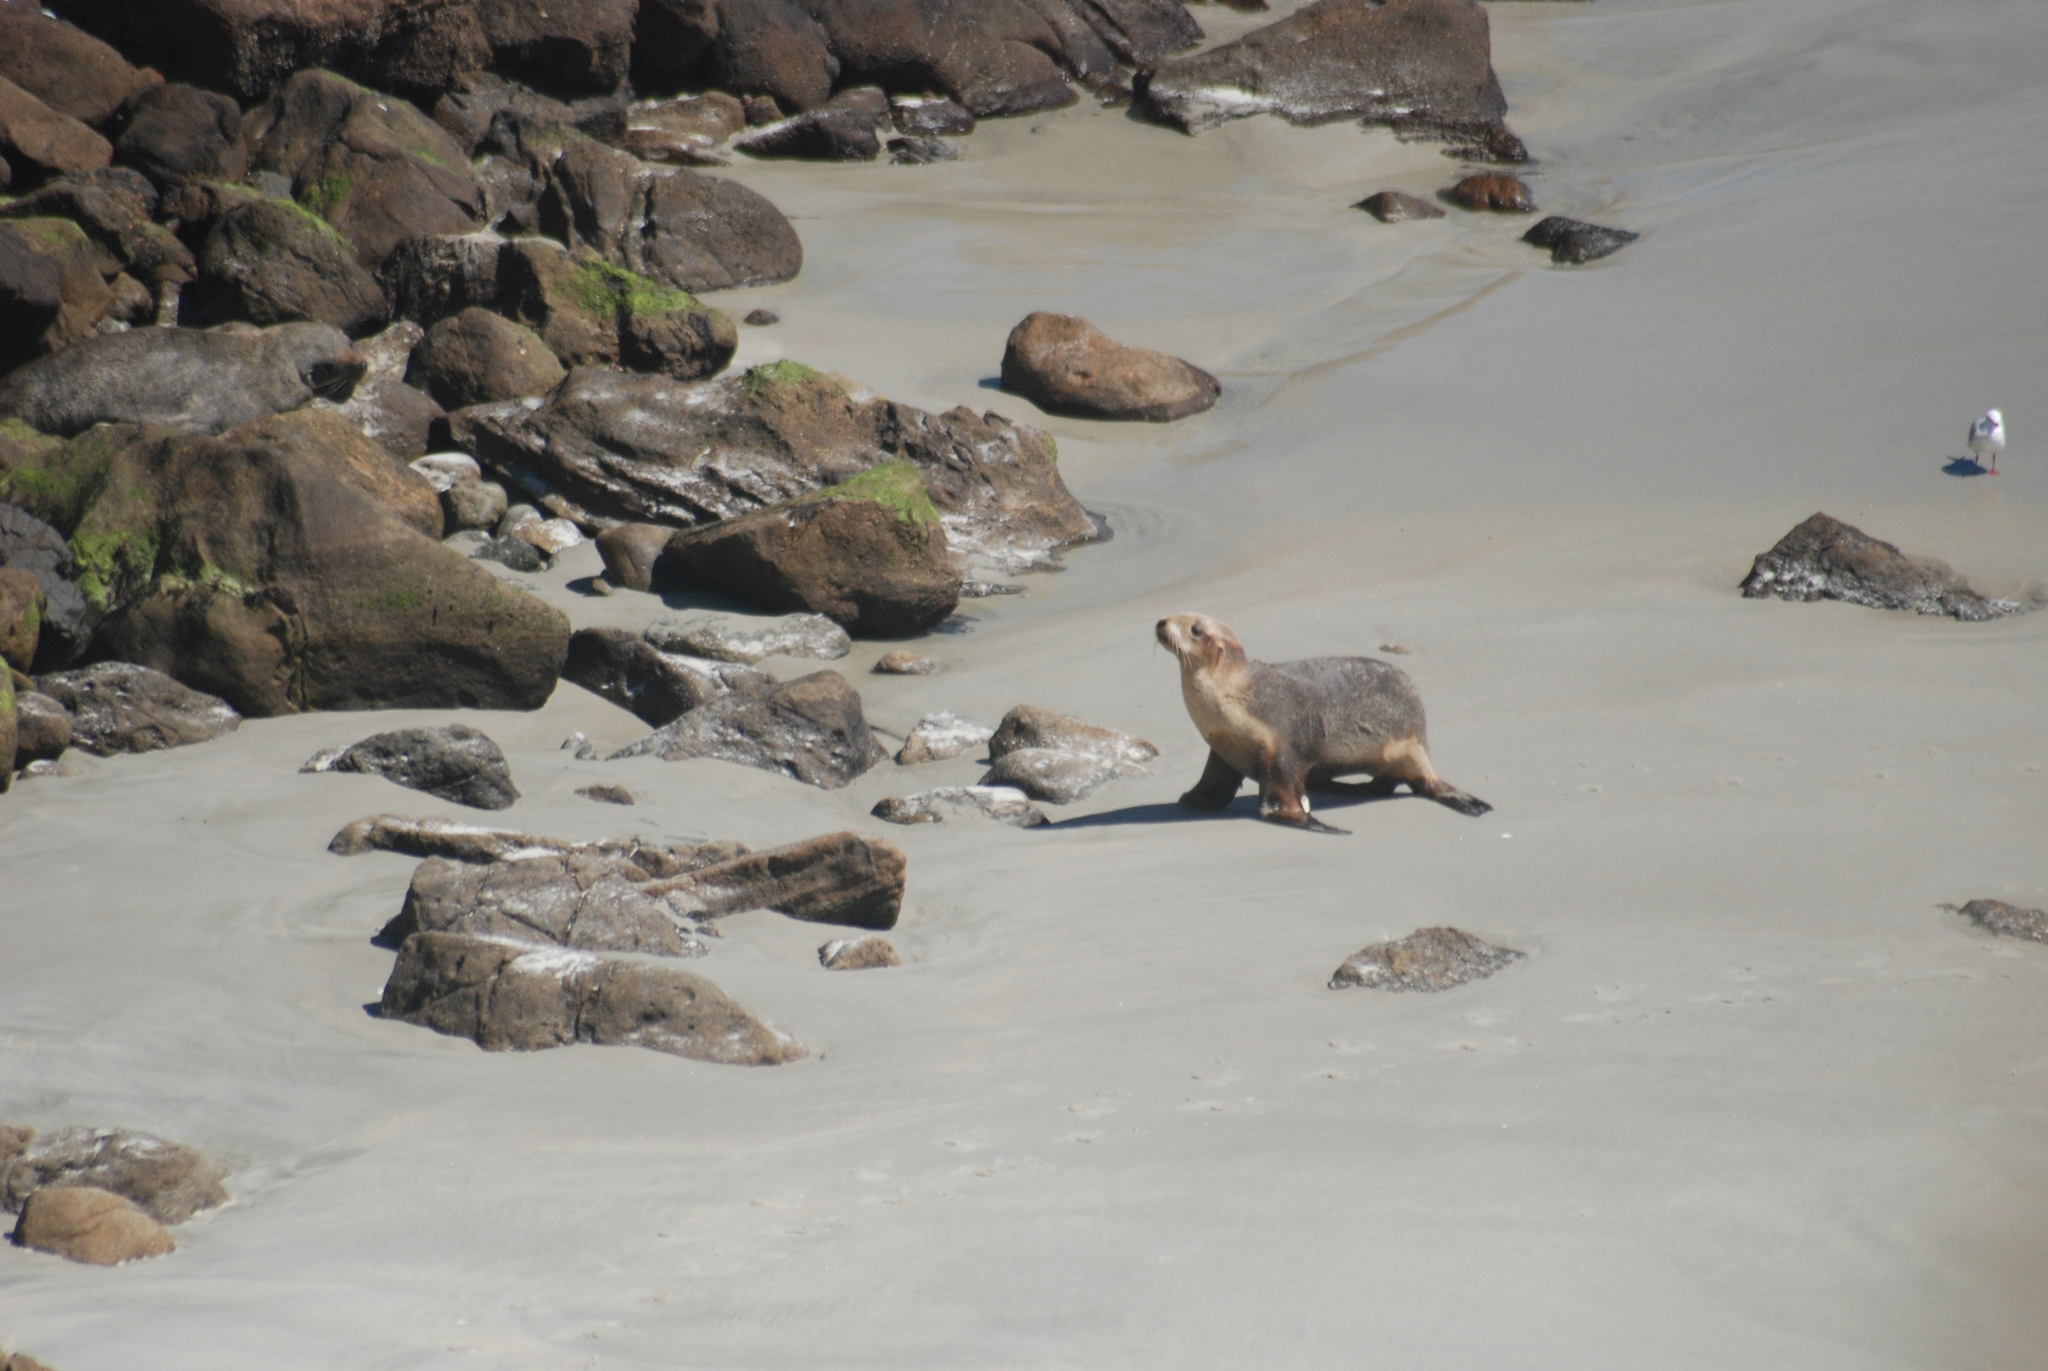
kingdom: Animalia
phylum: Chordata
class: Mammalia
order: Carnivora
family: Otariidae
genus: Phocarctos
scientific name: Phocarctos hookeri
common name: New zealand sea lion
